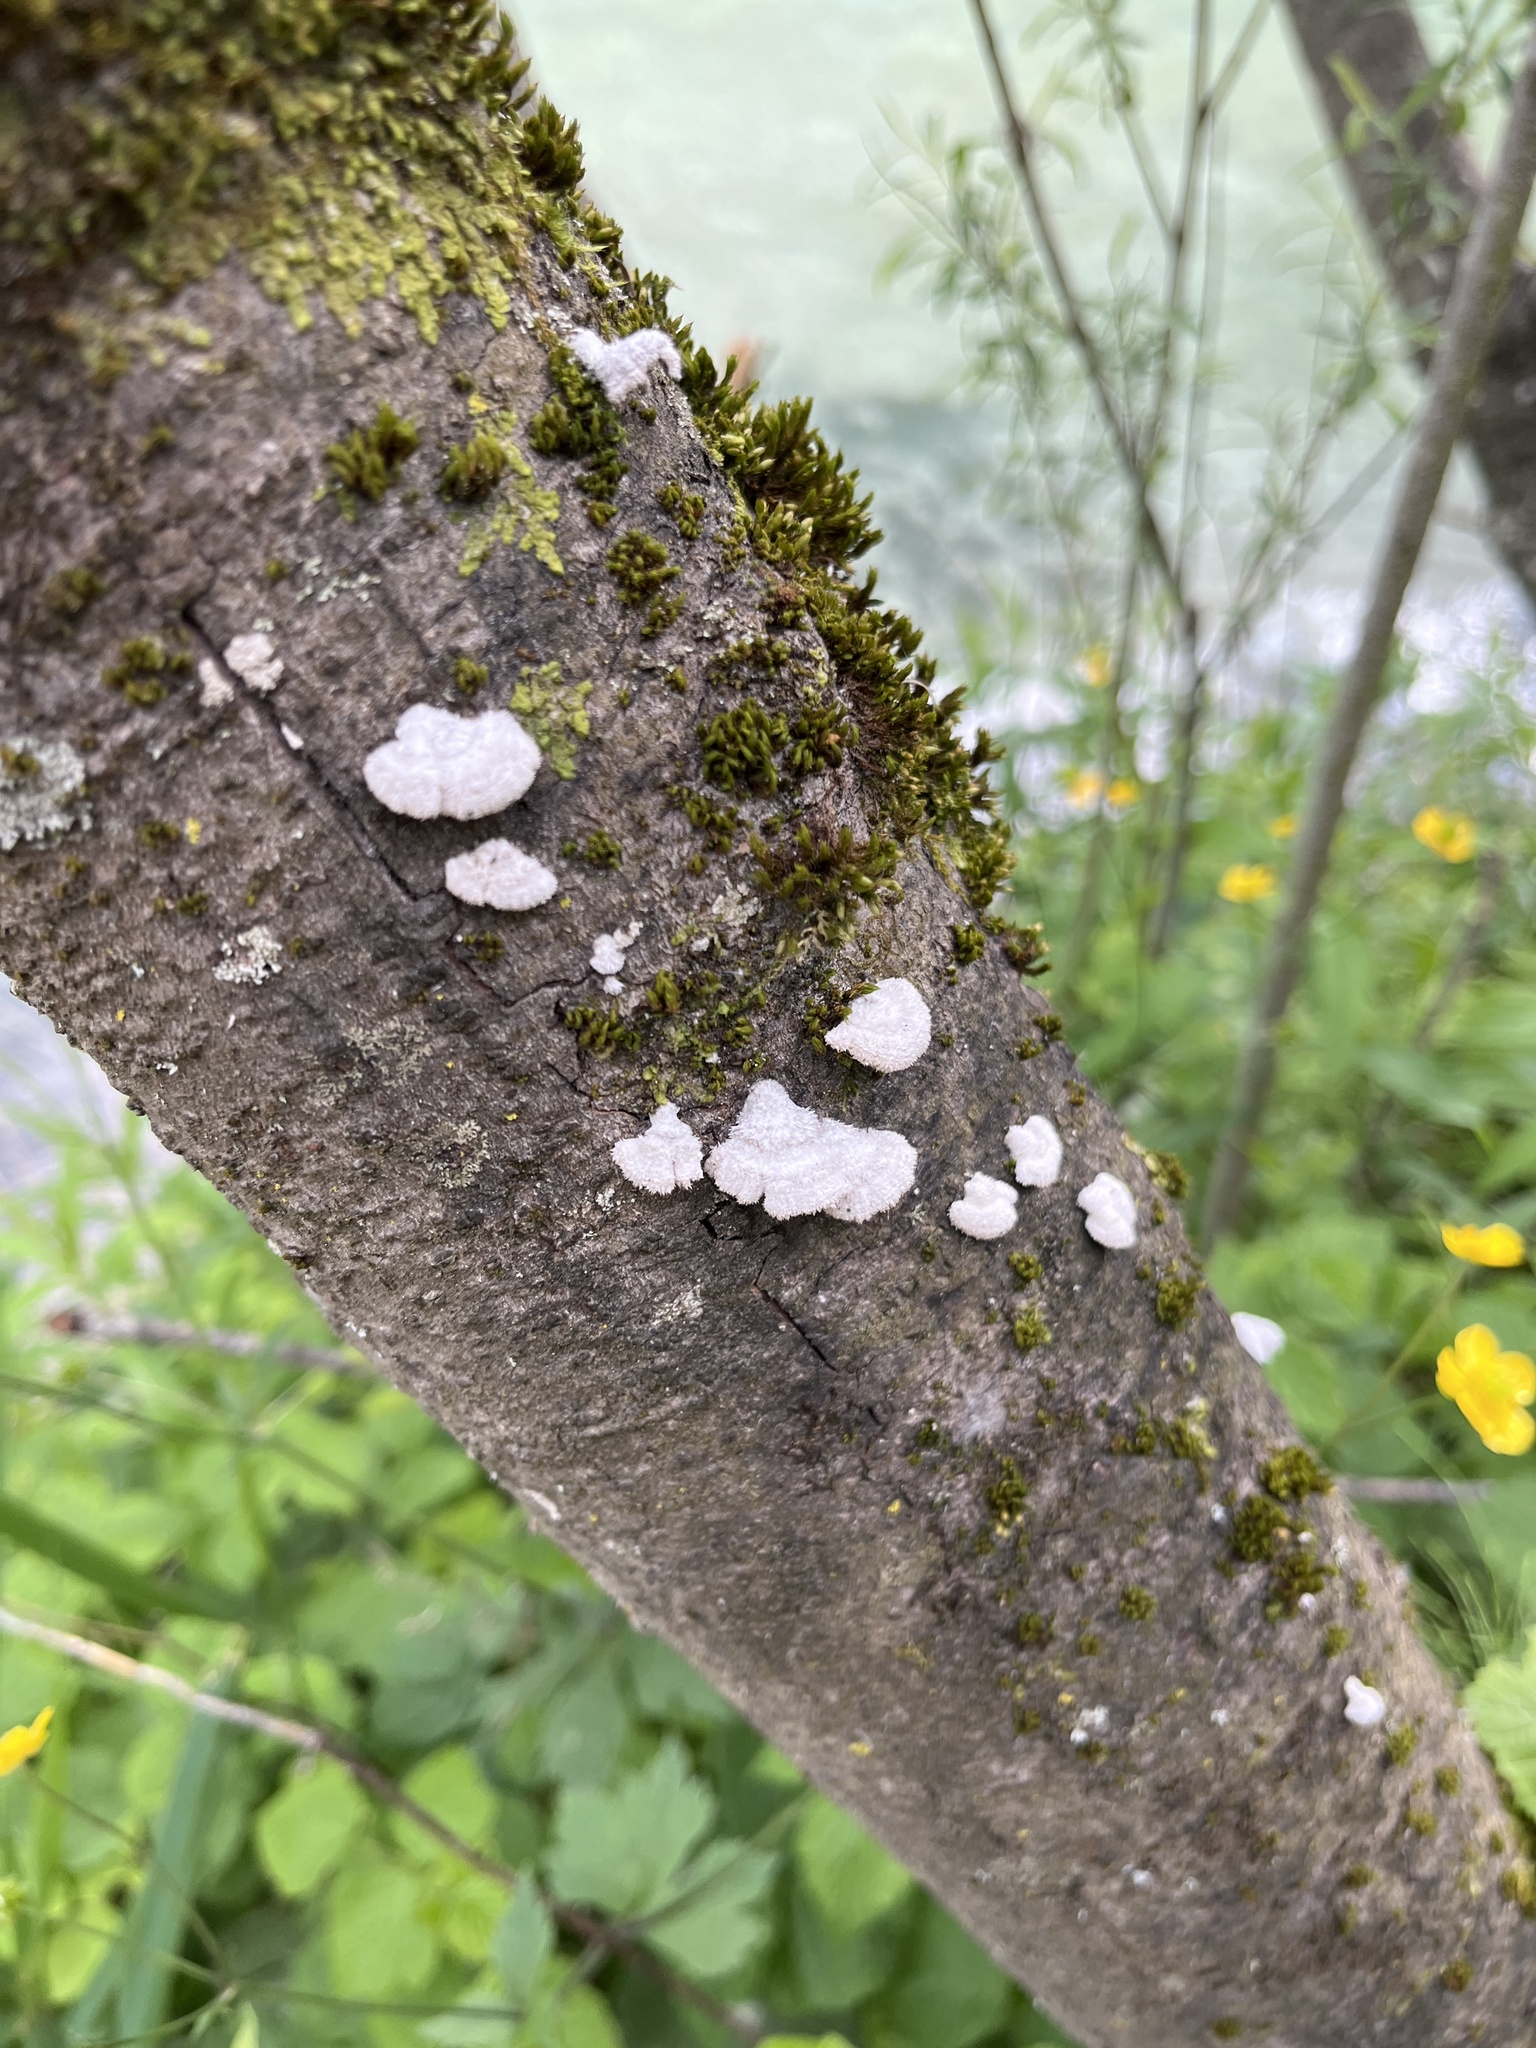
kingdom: Fungi
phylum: Basidiomycota
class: Agaricomycetes
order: Agaricales
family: Schizophyllaceae
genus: Schizophyllum
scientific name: Schizophyllum commune
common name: Common porecrust
